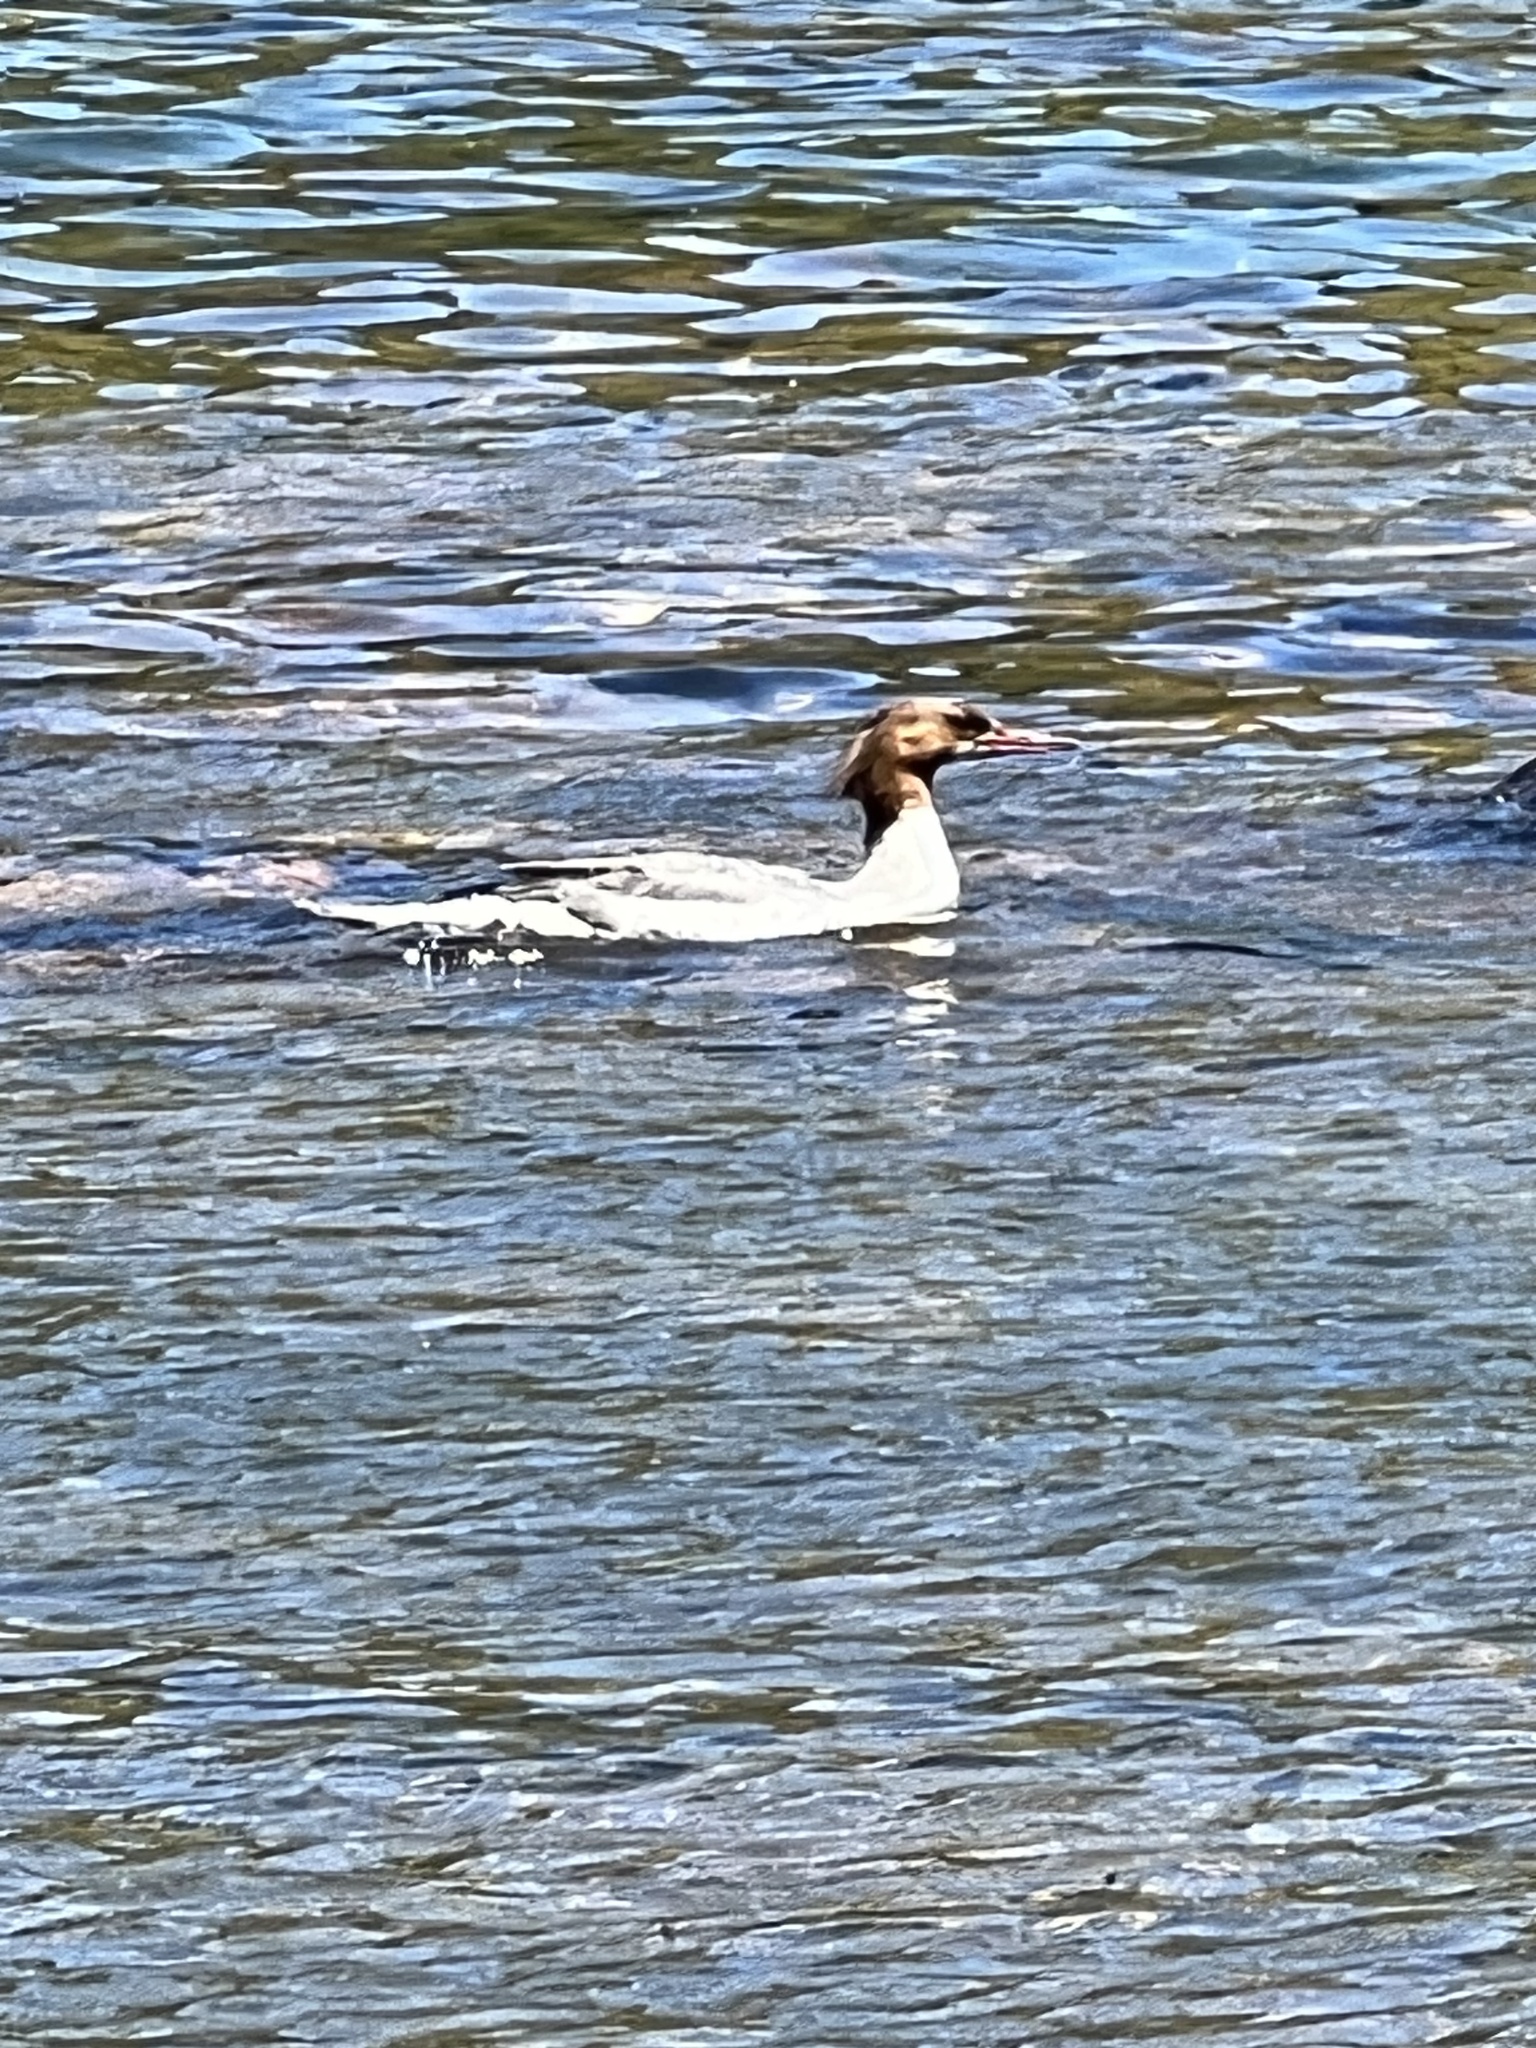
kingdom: Animalia
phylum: Chordata
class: Aves
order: Anseriformes
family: Anatidae
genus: Mergus
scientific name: Mergus merganser
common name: Common merganser
